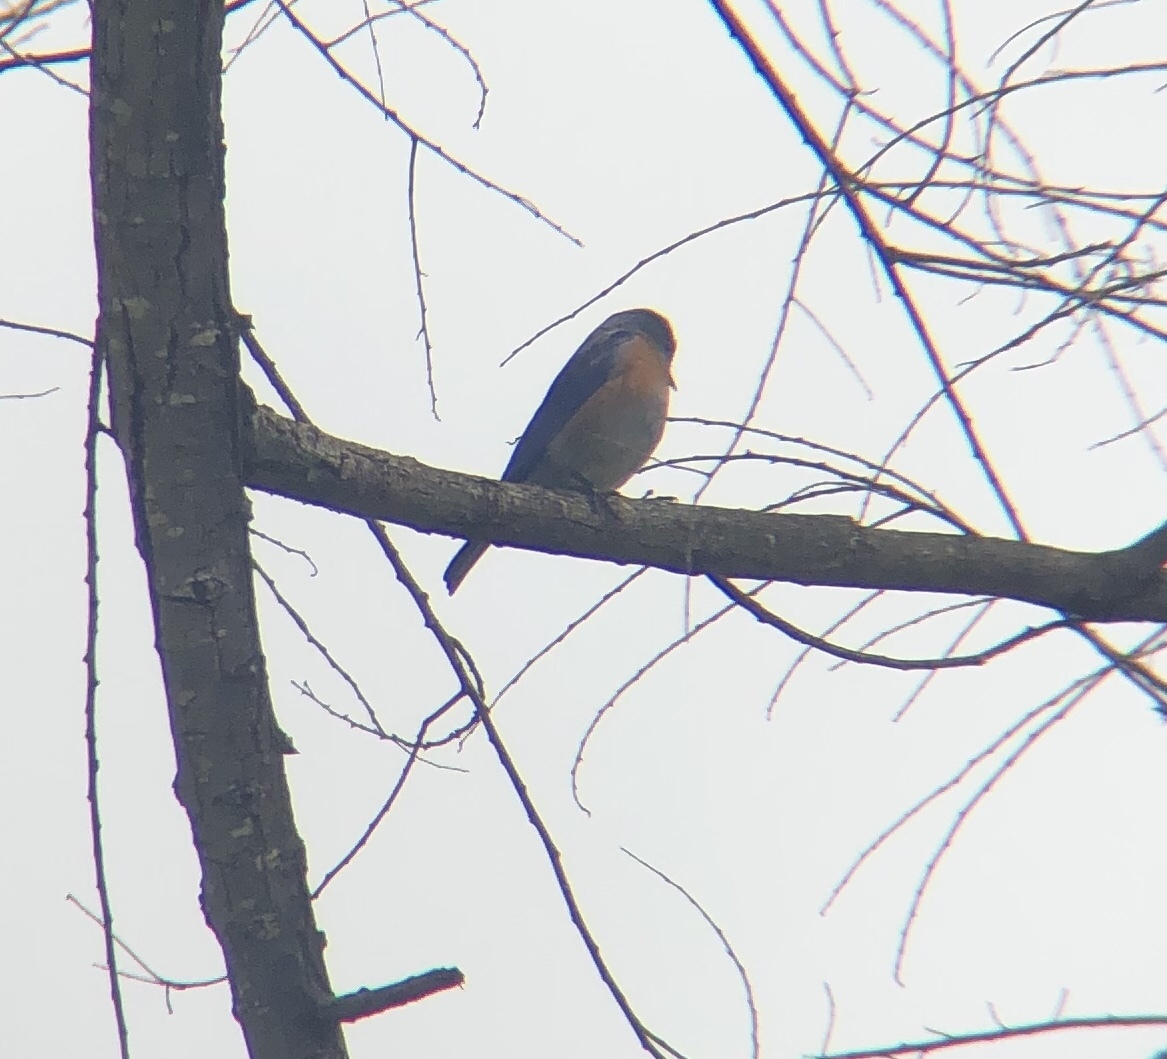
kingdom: Animalia
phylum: Chordata
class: Aves
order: Passeriformes
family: Turdidae
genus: Sialia
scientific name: Sialia mexicana
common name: Western bluebird
